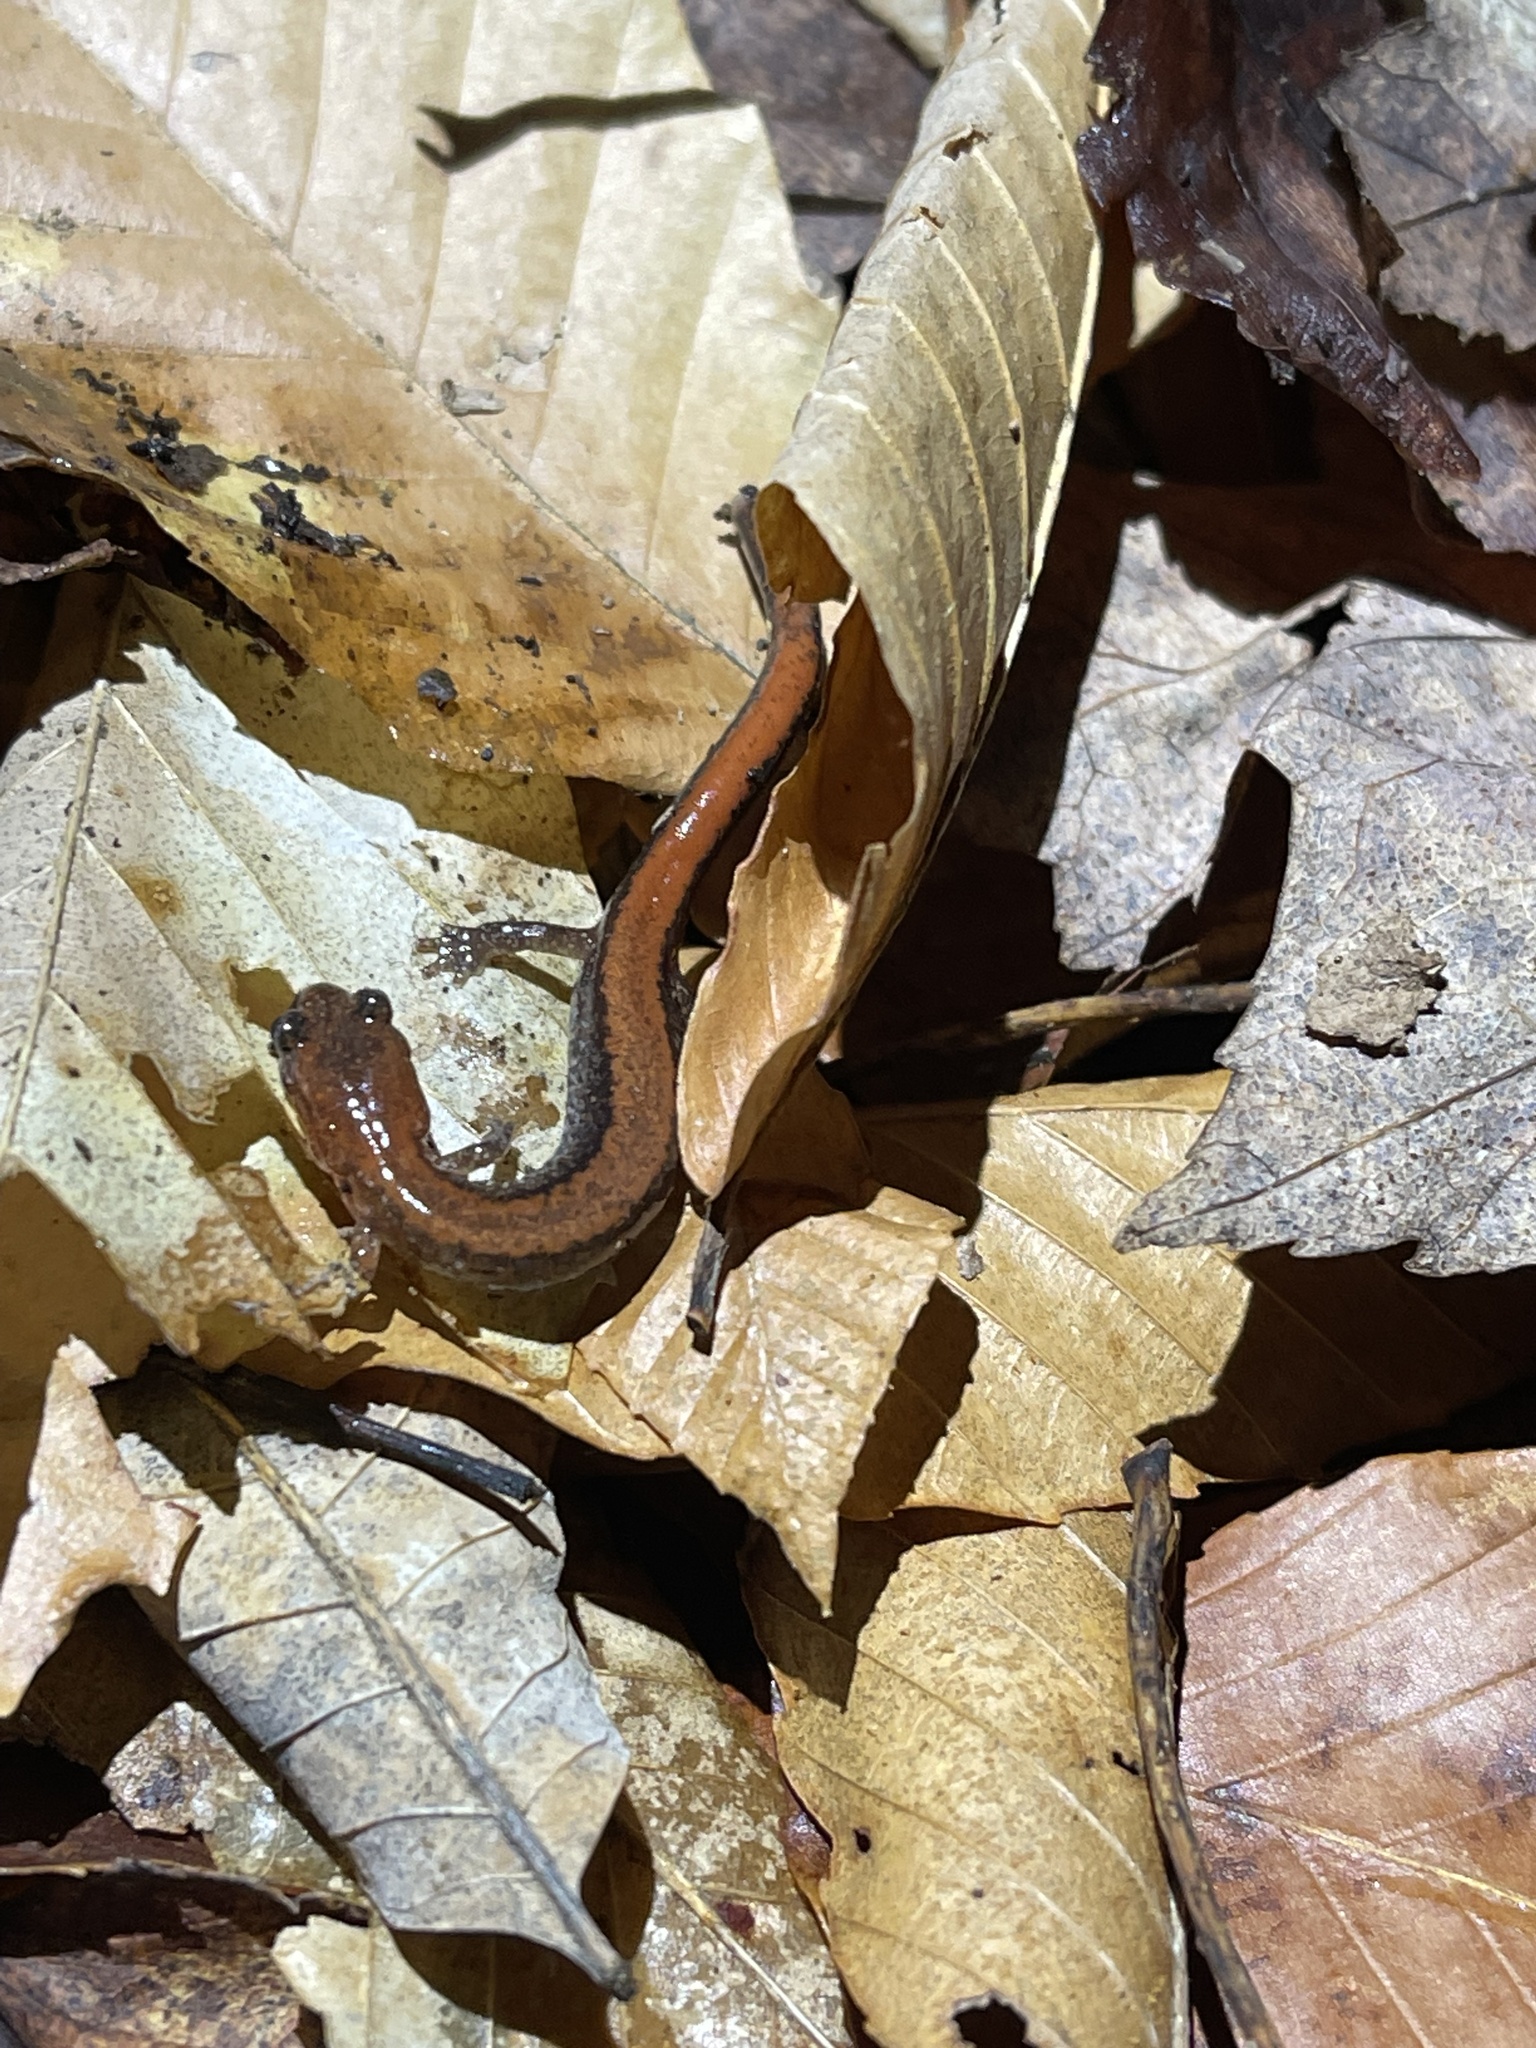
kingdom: Animalia
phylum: Chordata
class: Amphibia
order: Caudata
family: Plethodontidae
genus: Plethodon
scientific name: Plethodon cinereus
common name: Redback salamander
